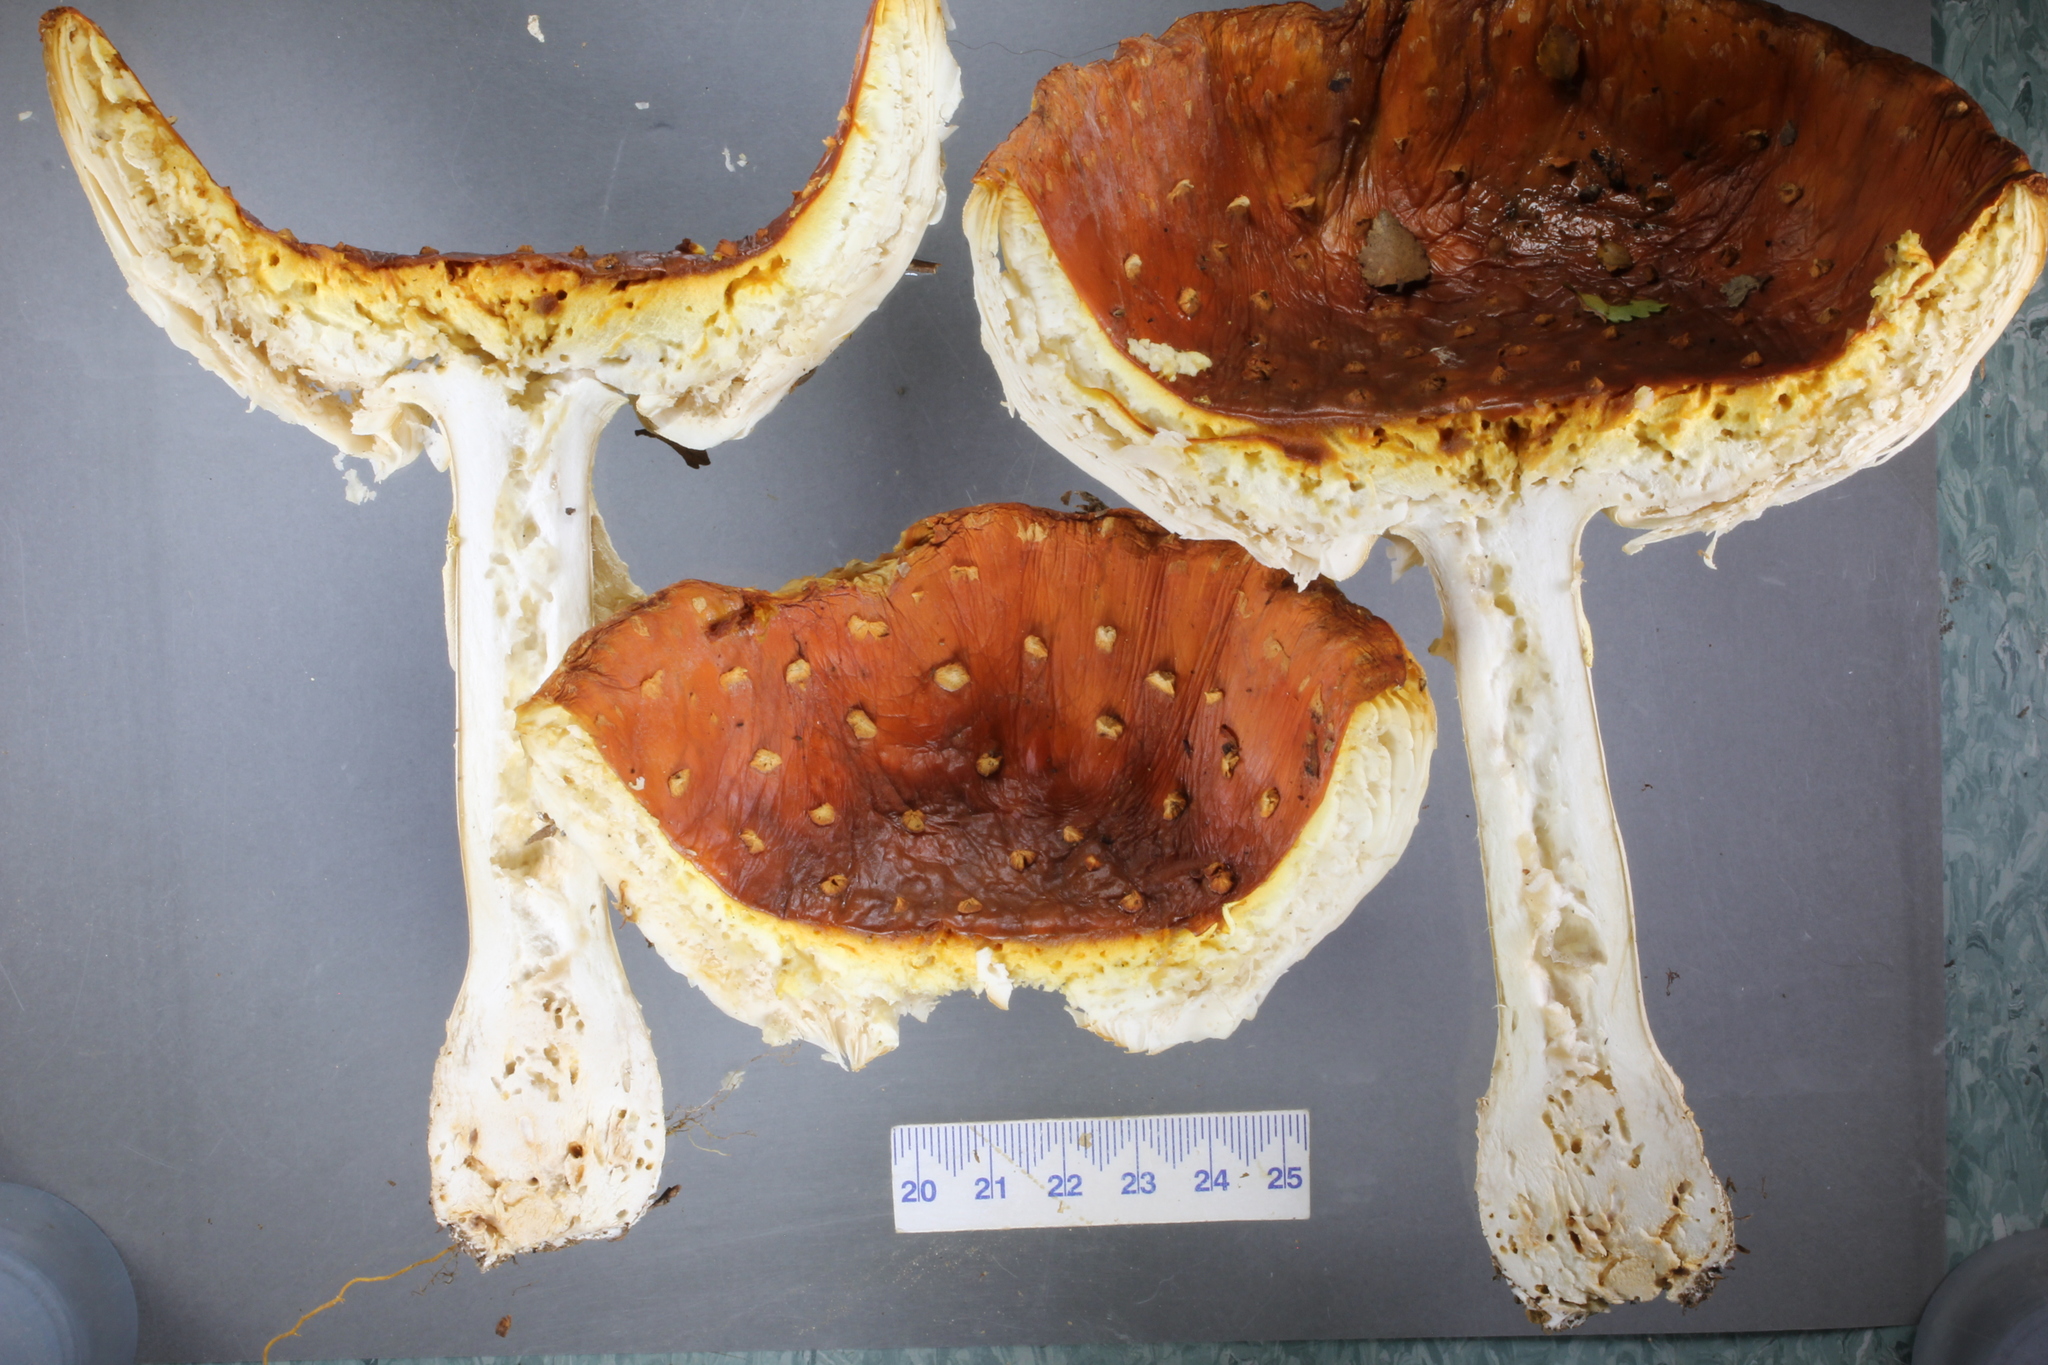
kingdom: Fungi
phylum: Basidiomycota
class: Agaricomycetes
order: Agaricales
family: Amanitaceae
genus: Amanita
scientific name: Amanita muscaria
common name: Fly agaric
